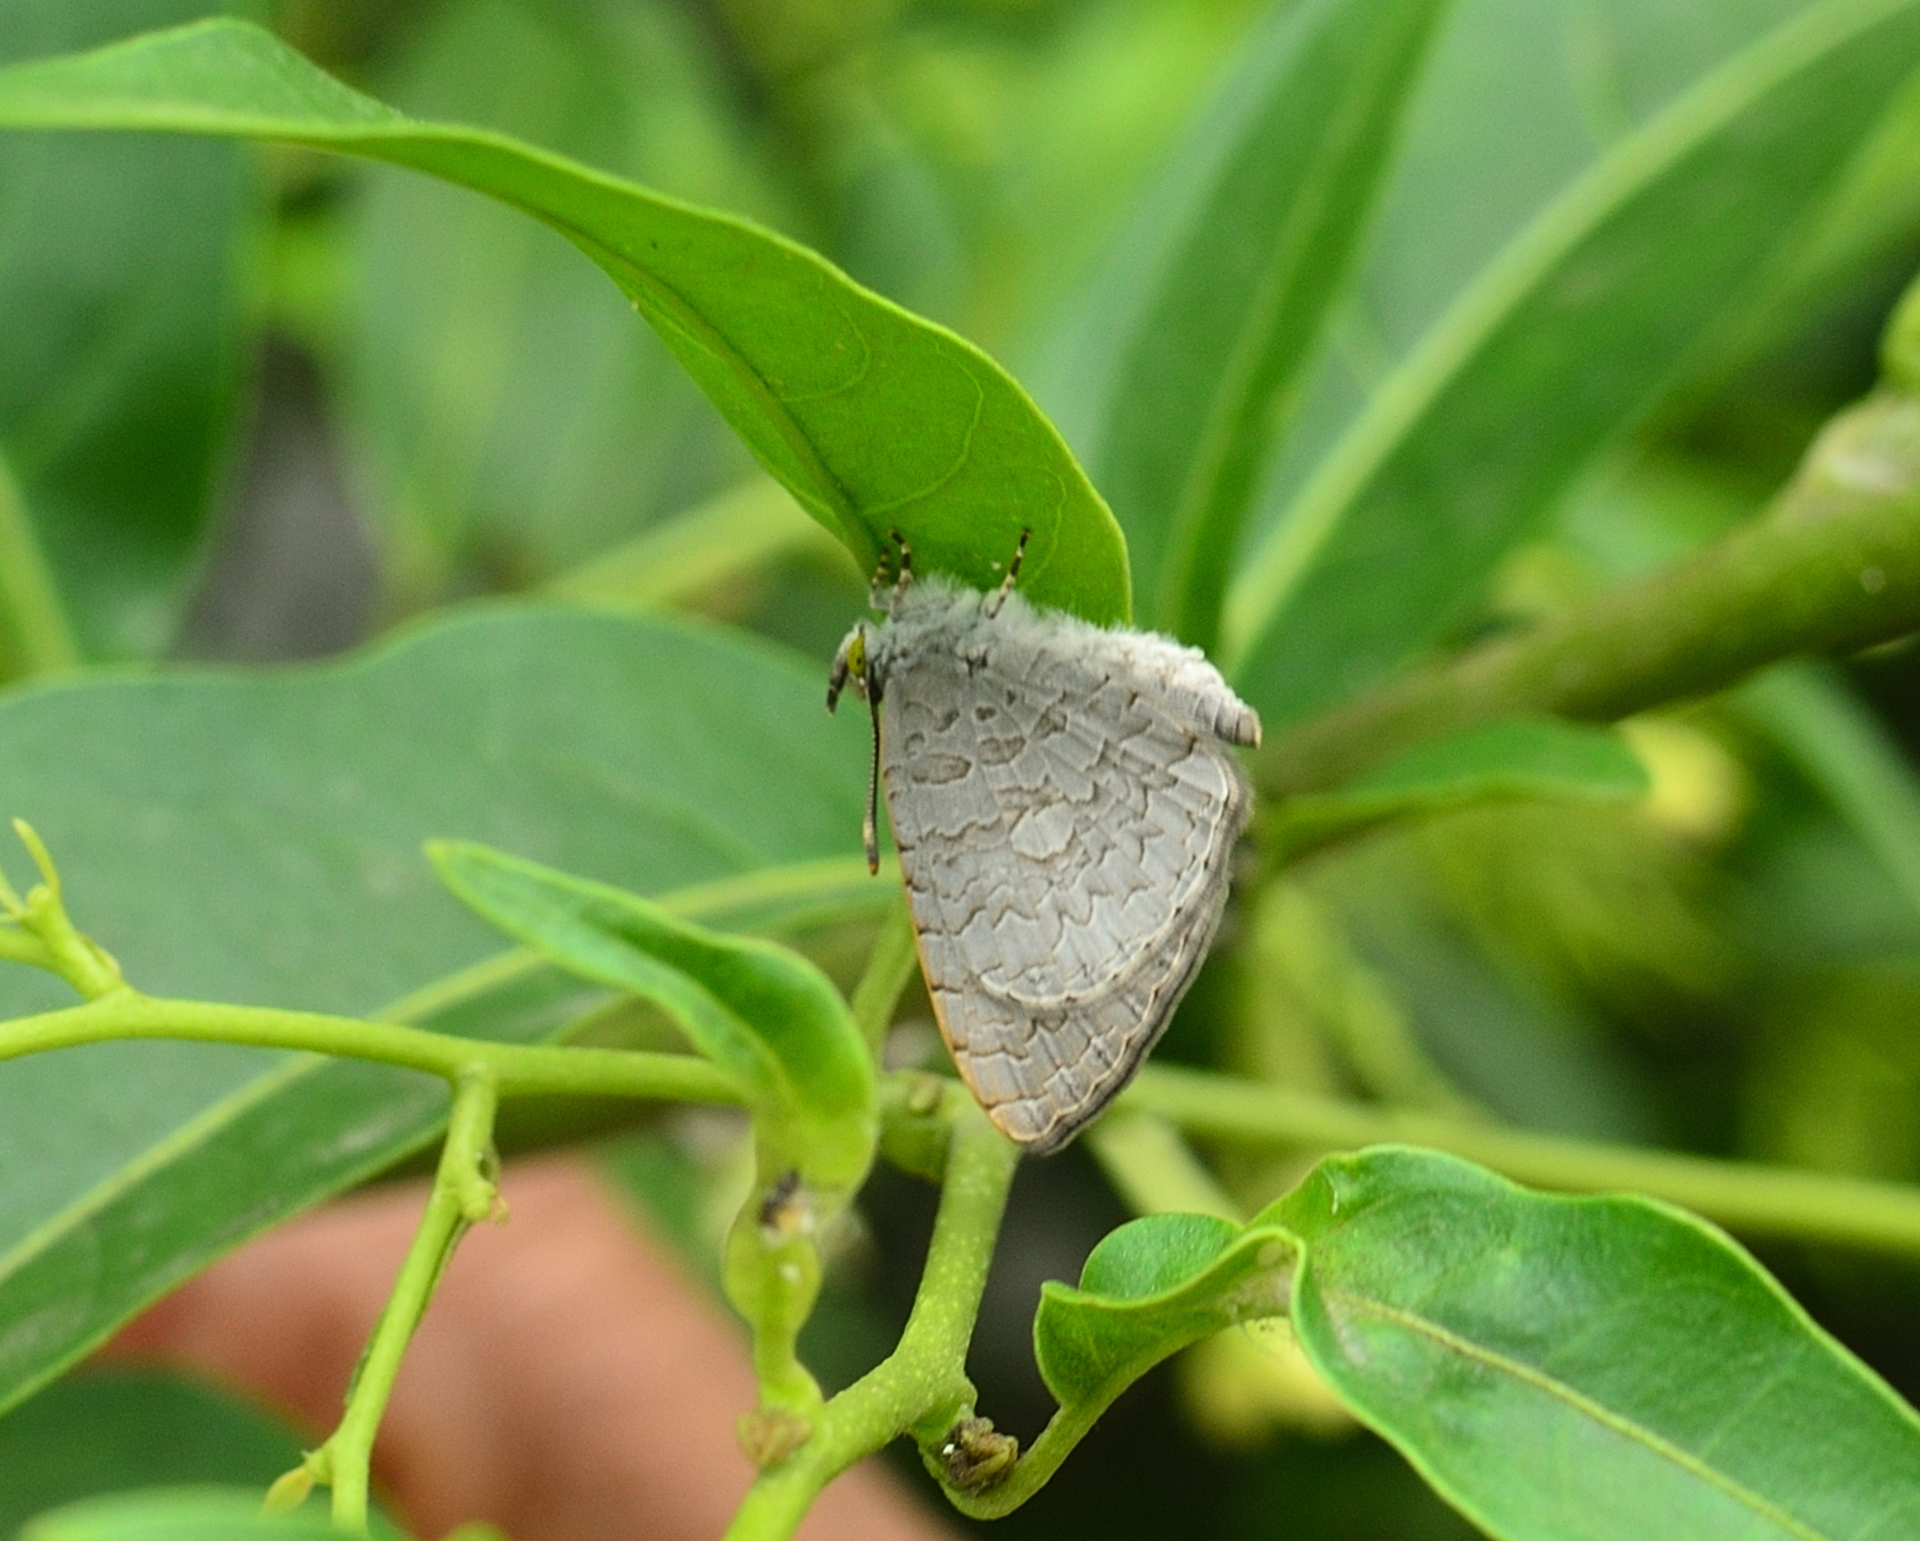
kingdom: Animalia
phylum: Arthropoda
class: Insecta
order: Lepidoptera
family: Lycaenidae
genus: Spalgis
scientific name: Spalgis epius
